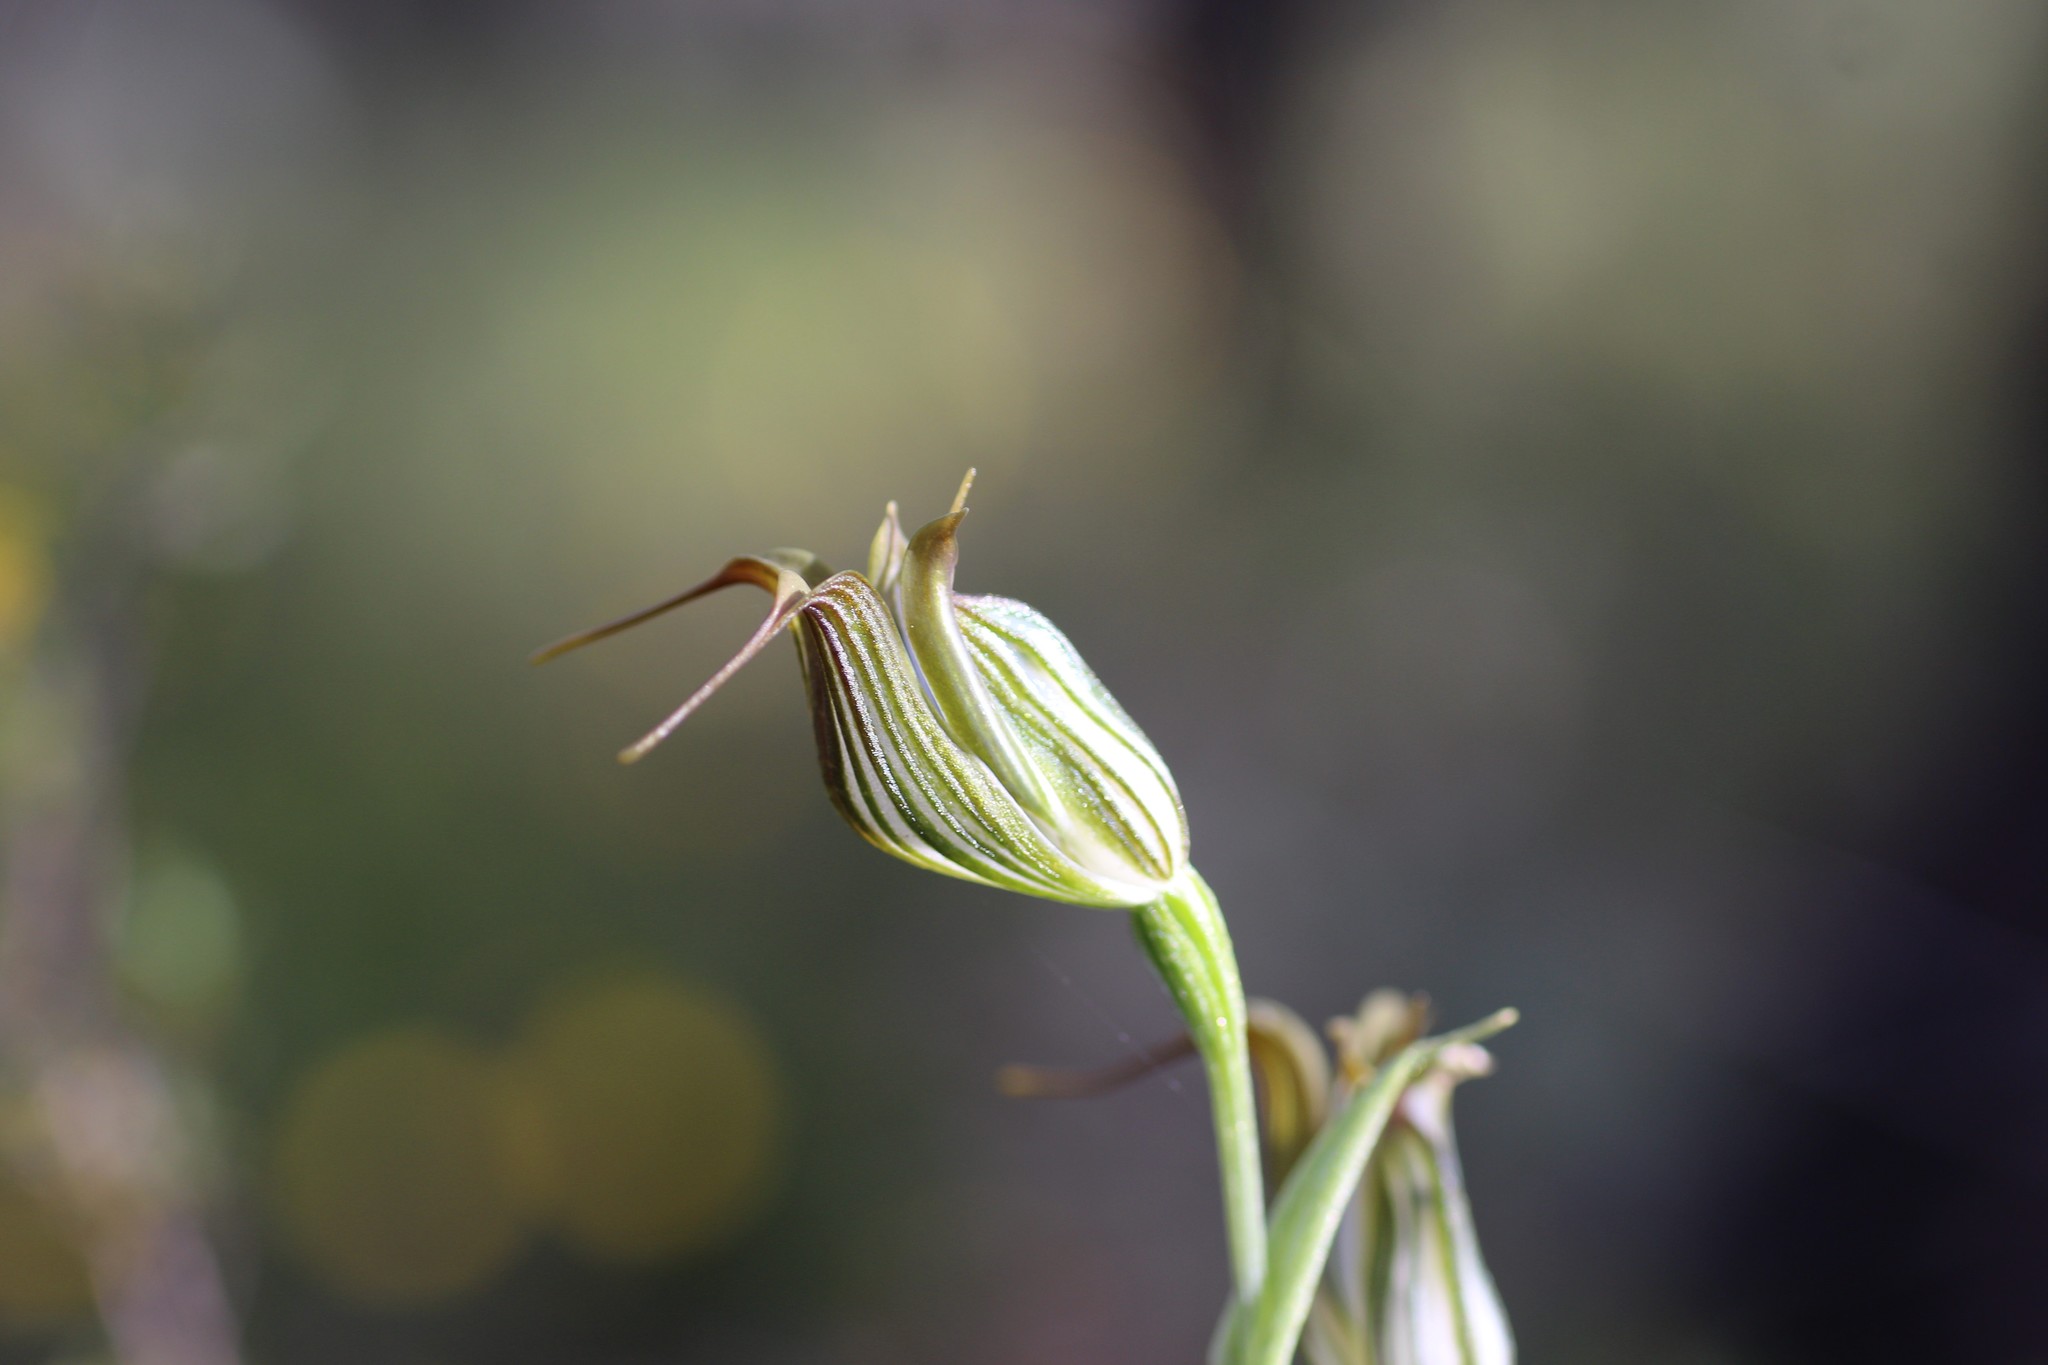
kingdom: Plantae
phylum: Tracheophyta
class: Liliopsida
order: Asparagales
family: Orchidaceae
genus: Pterostylis
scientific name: Pterostylis recurva
